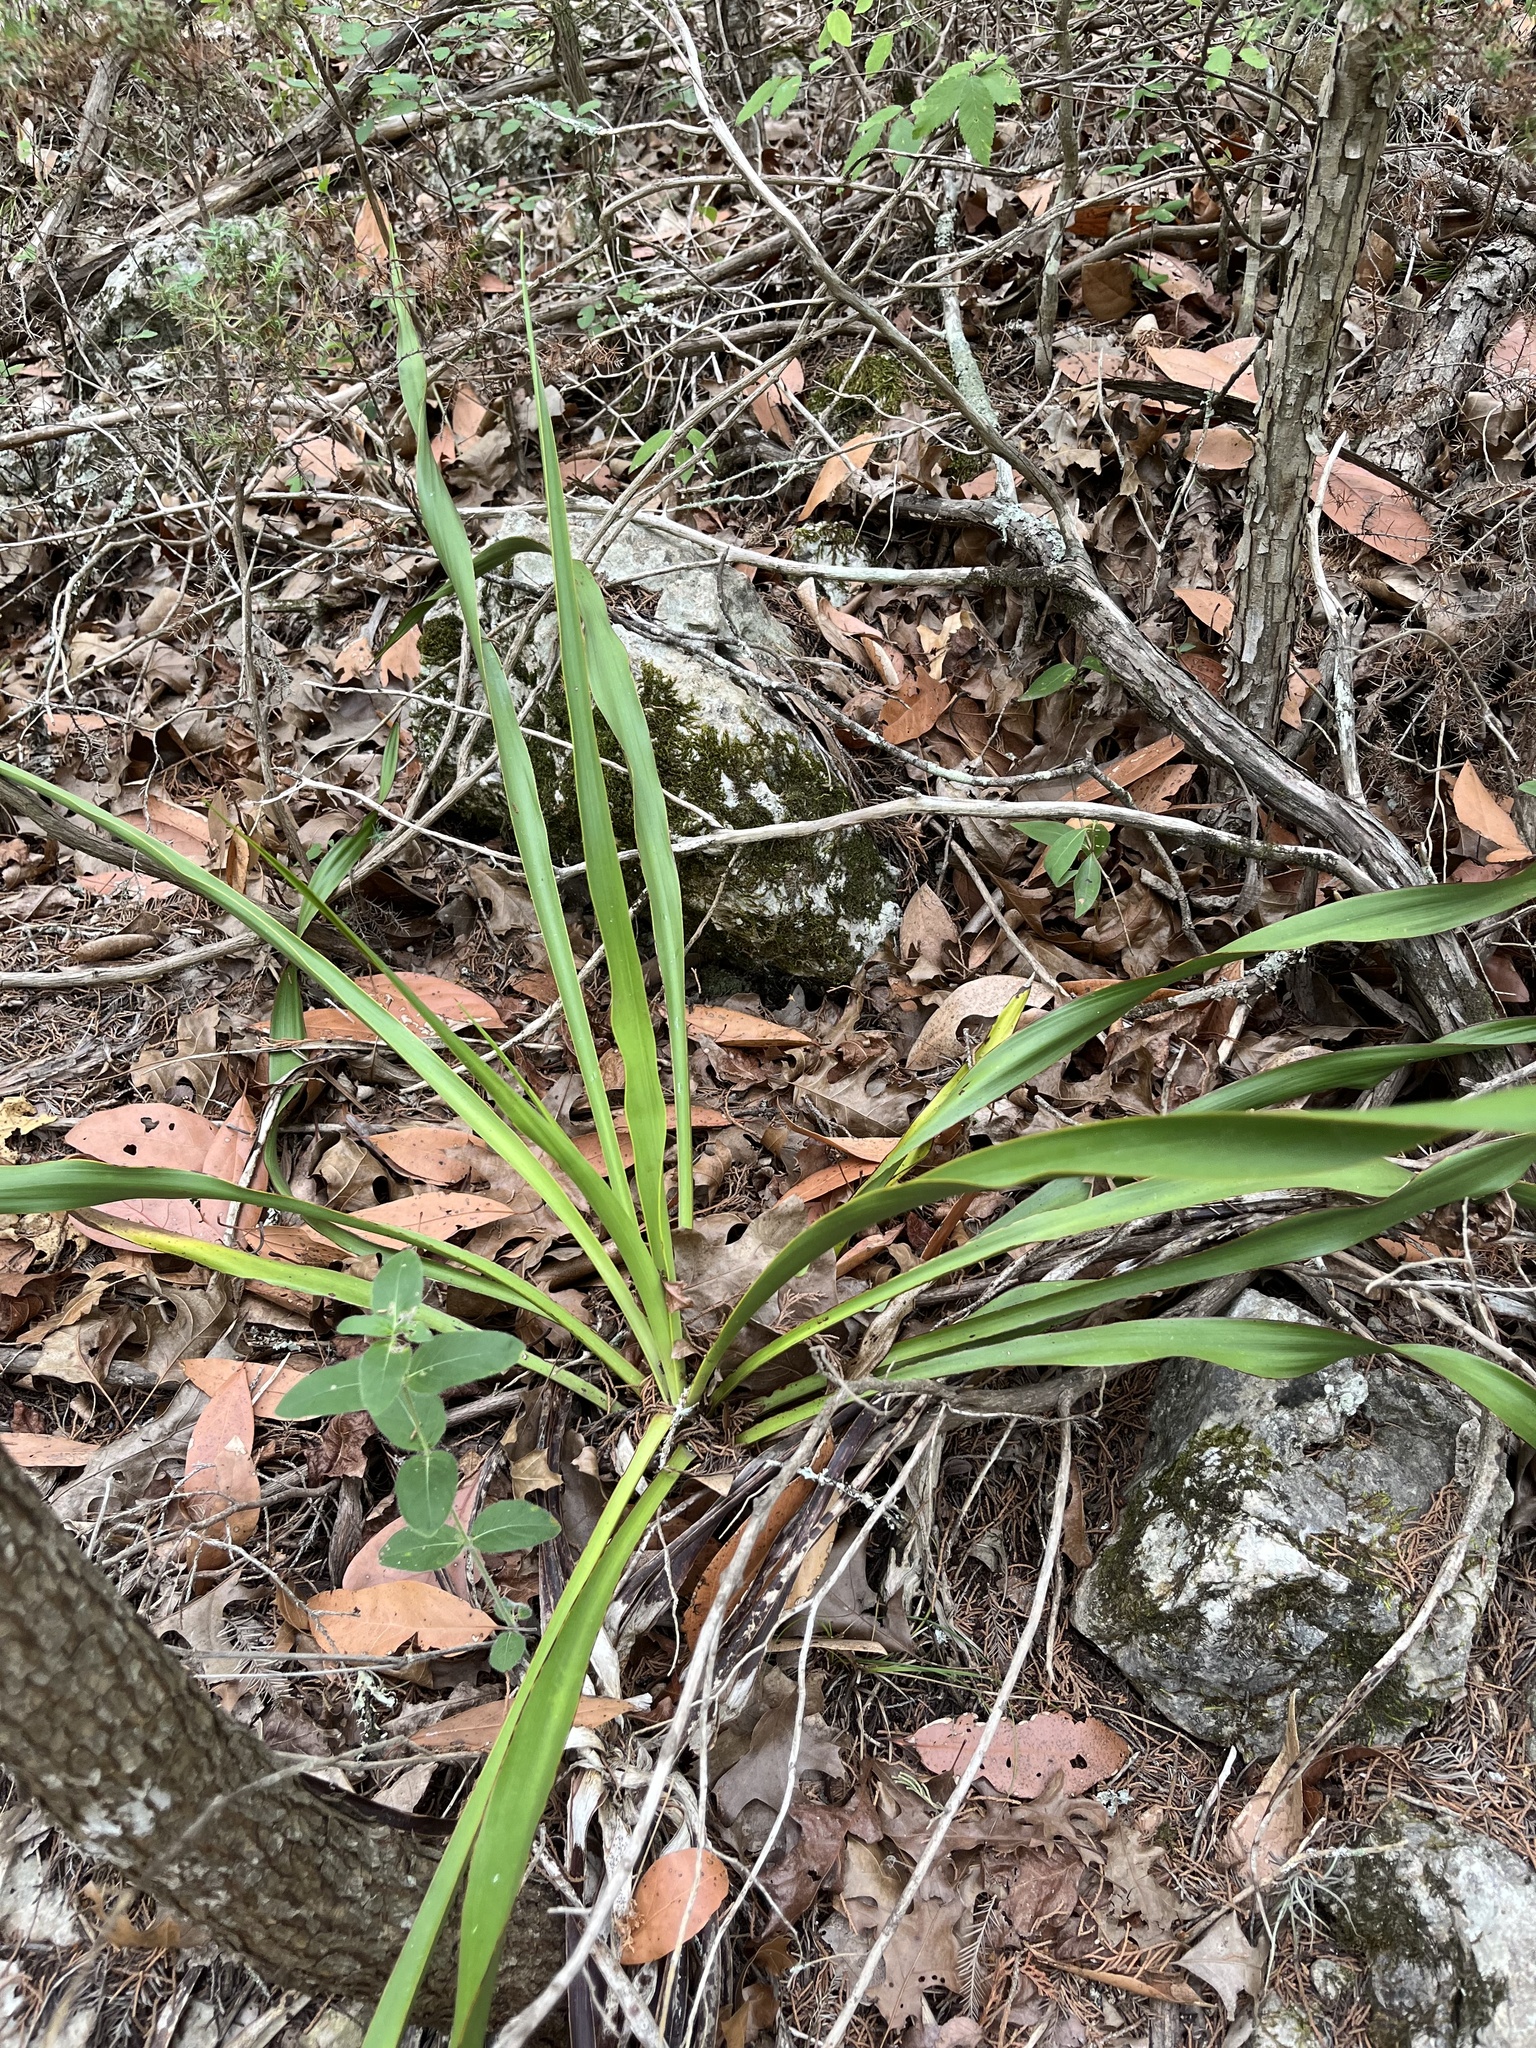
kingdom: Plantae
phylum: Tracheophyta
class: Liliopsida
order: Asparagales
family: Asparagaceae
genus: Yucca
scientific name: Yucca rupicola
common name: Twisted-leaf spanish-dagger
